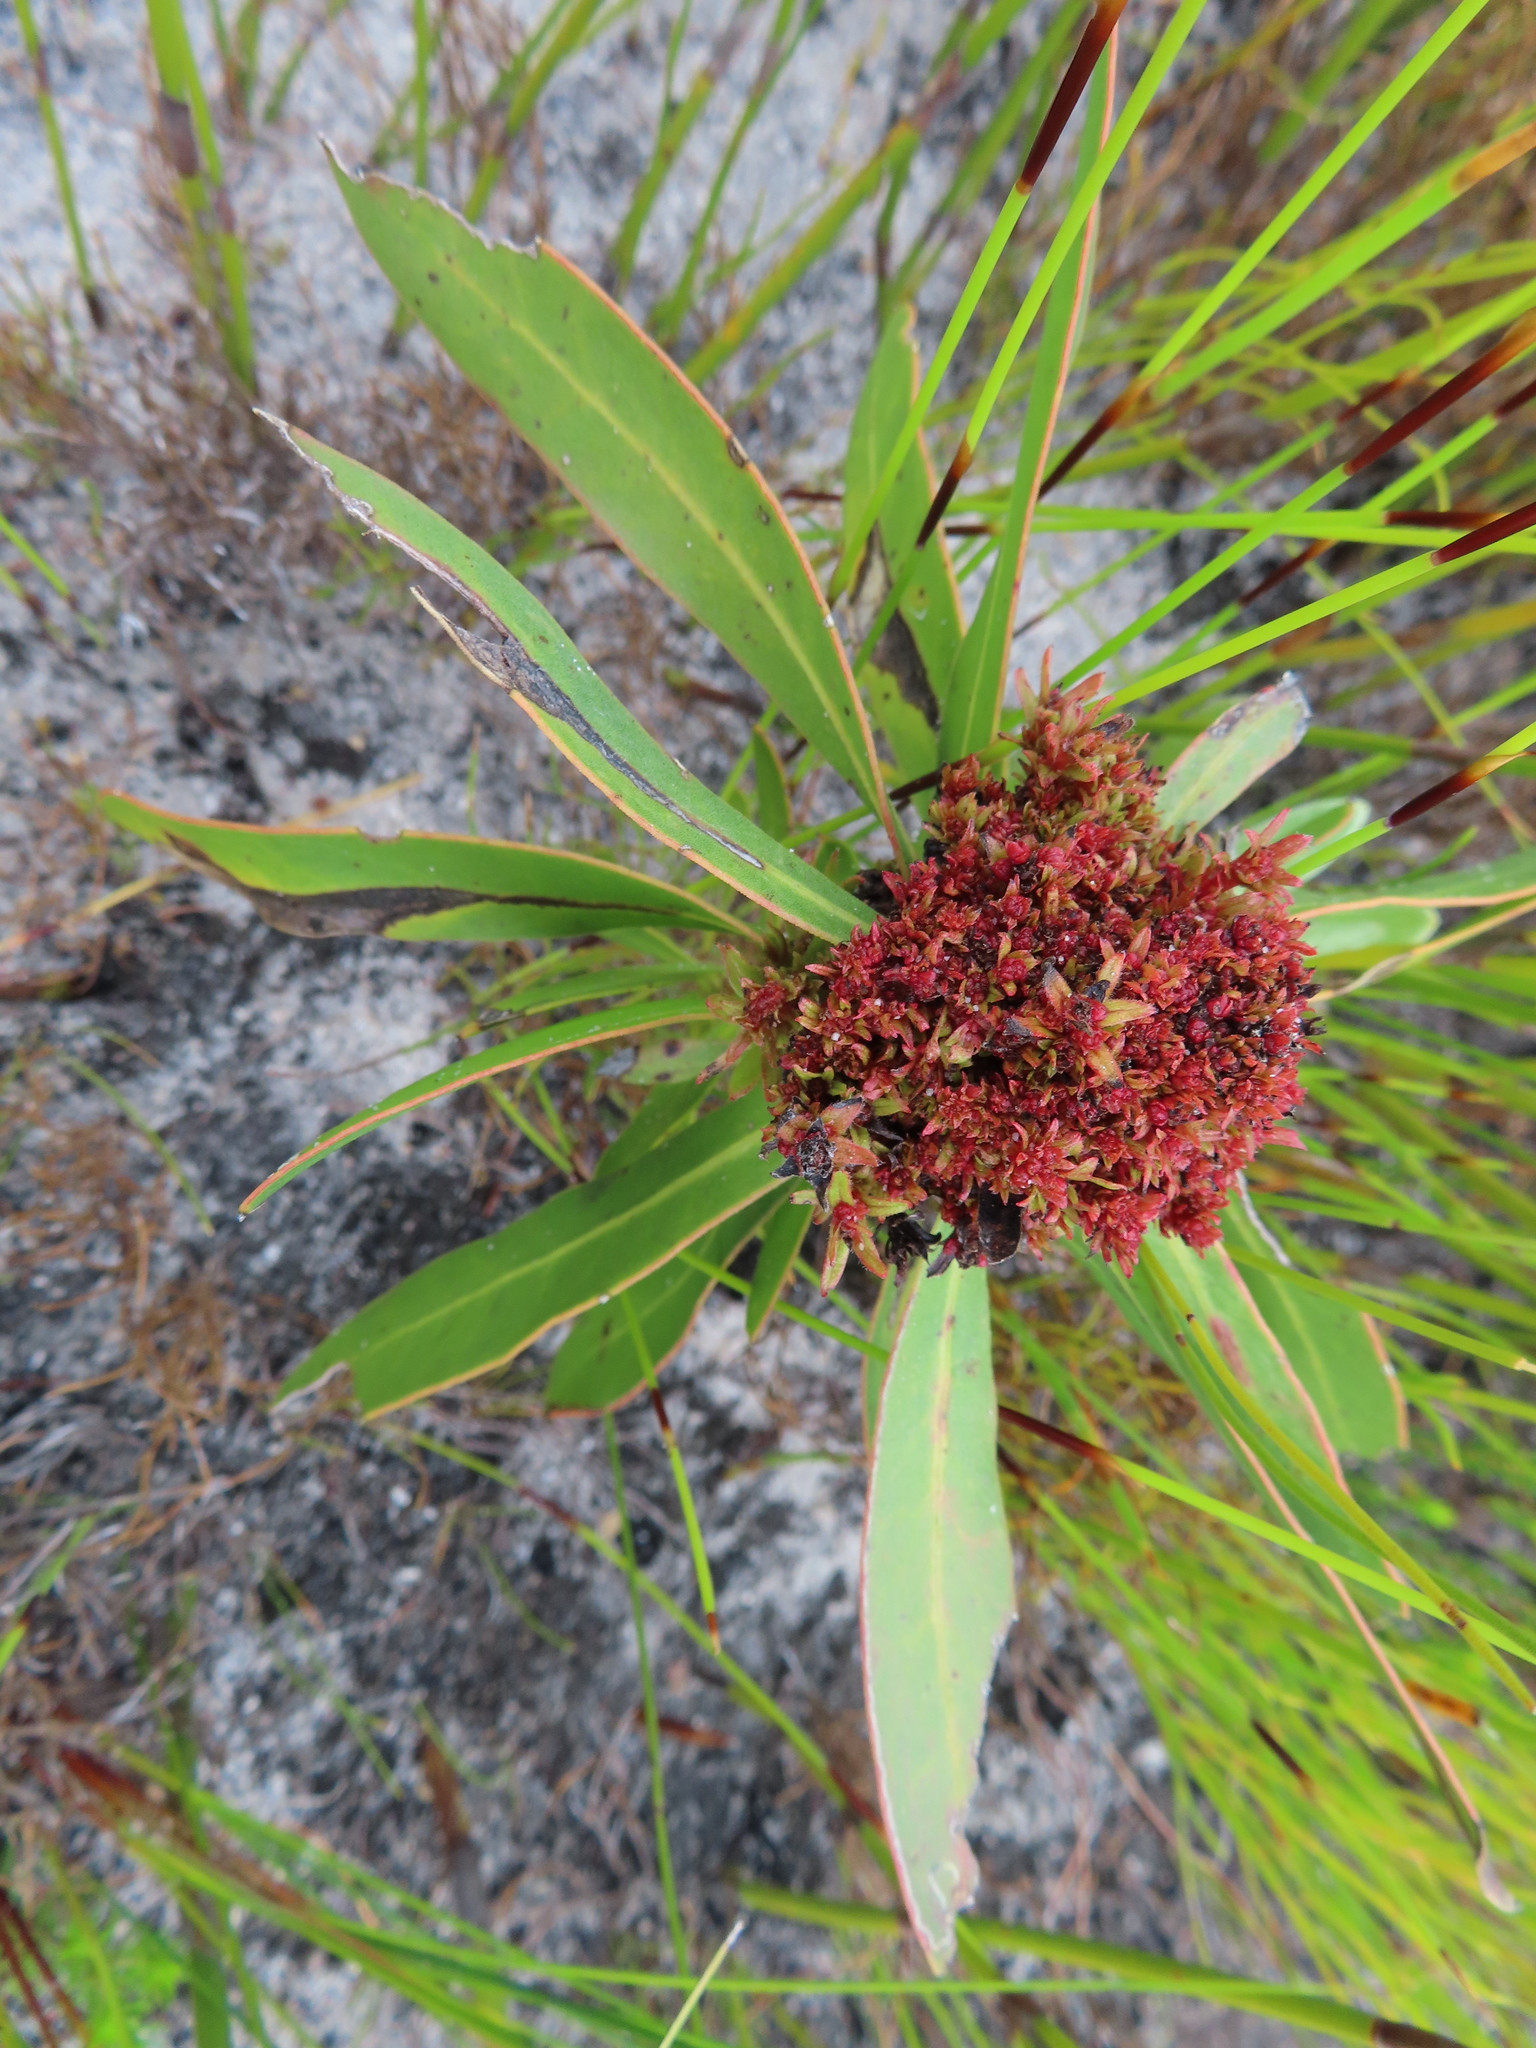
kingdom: Bacteria
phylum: Firmicutes
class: Bacilli
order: Acholeplasmatales
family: Acholeplasmataceae
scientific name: Acholeplasmataceae
